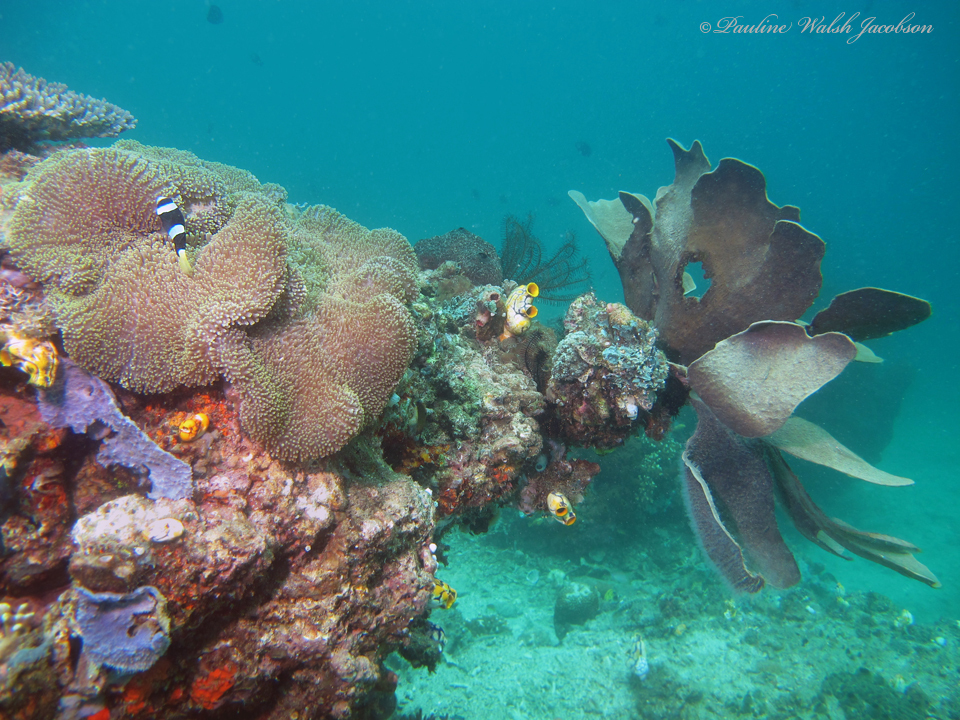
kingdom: Animalia
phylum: Chordata
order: Perciformes
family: Pomacentridae
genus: Amphiprion
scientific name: Amphiprion clarkii
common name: Clark's anemonefish
